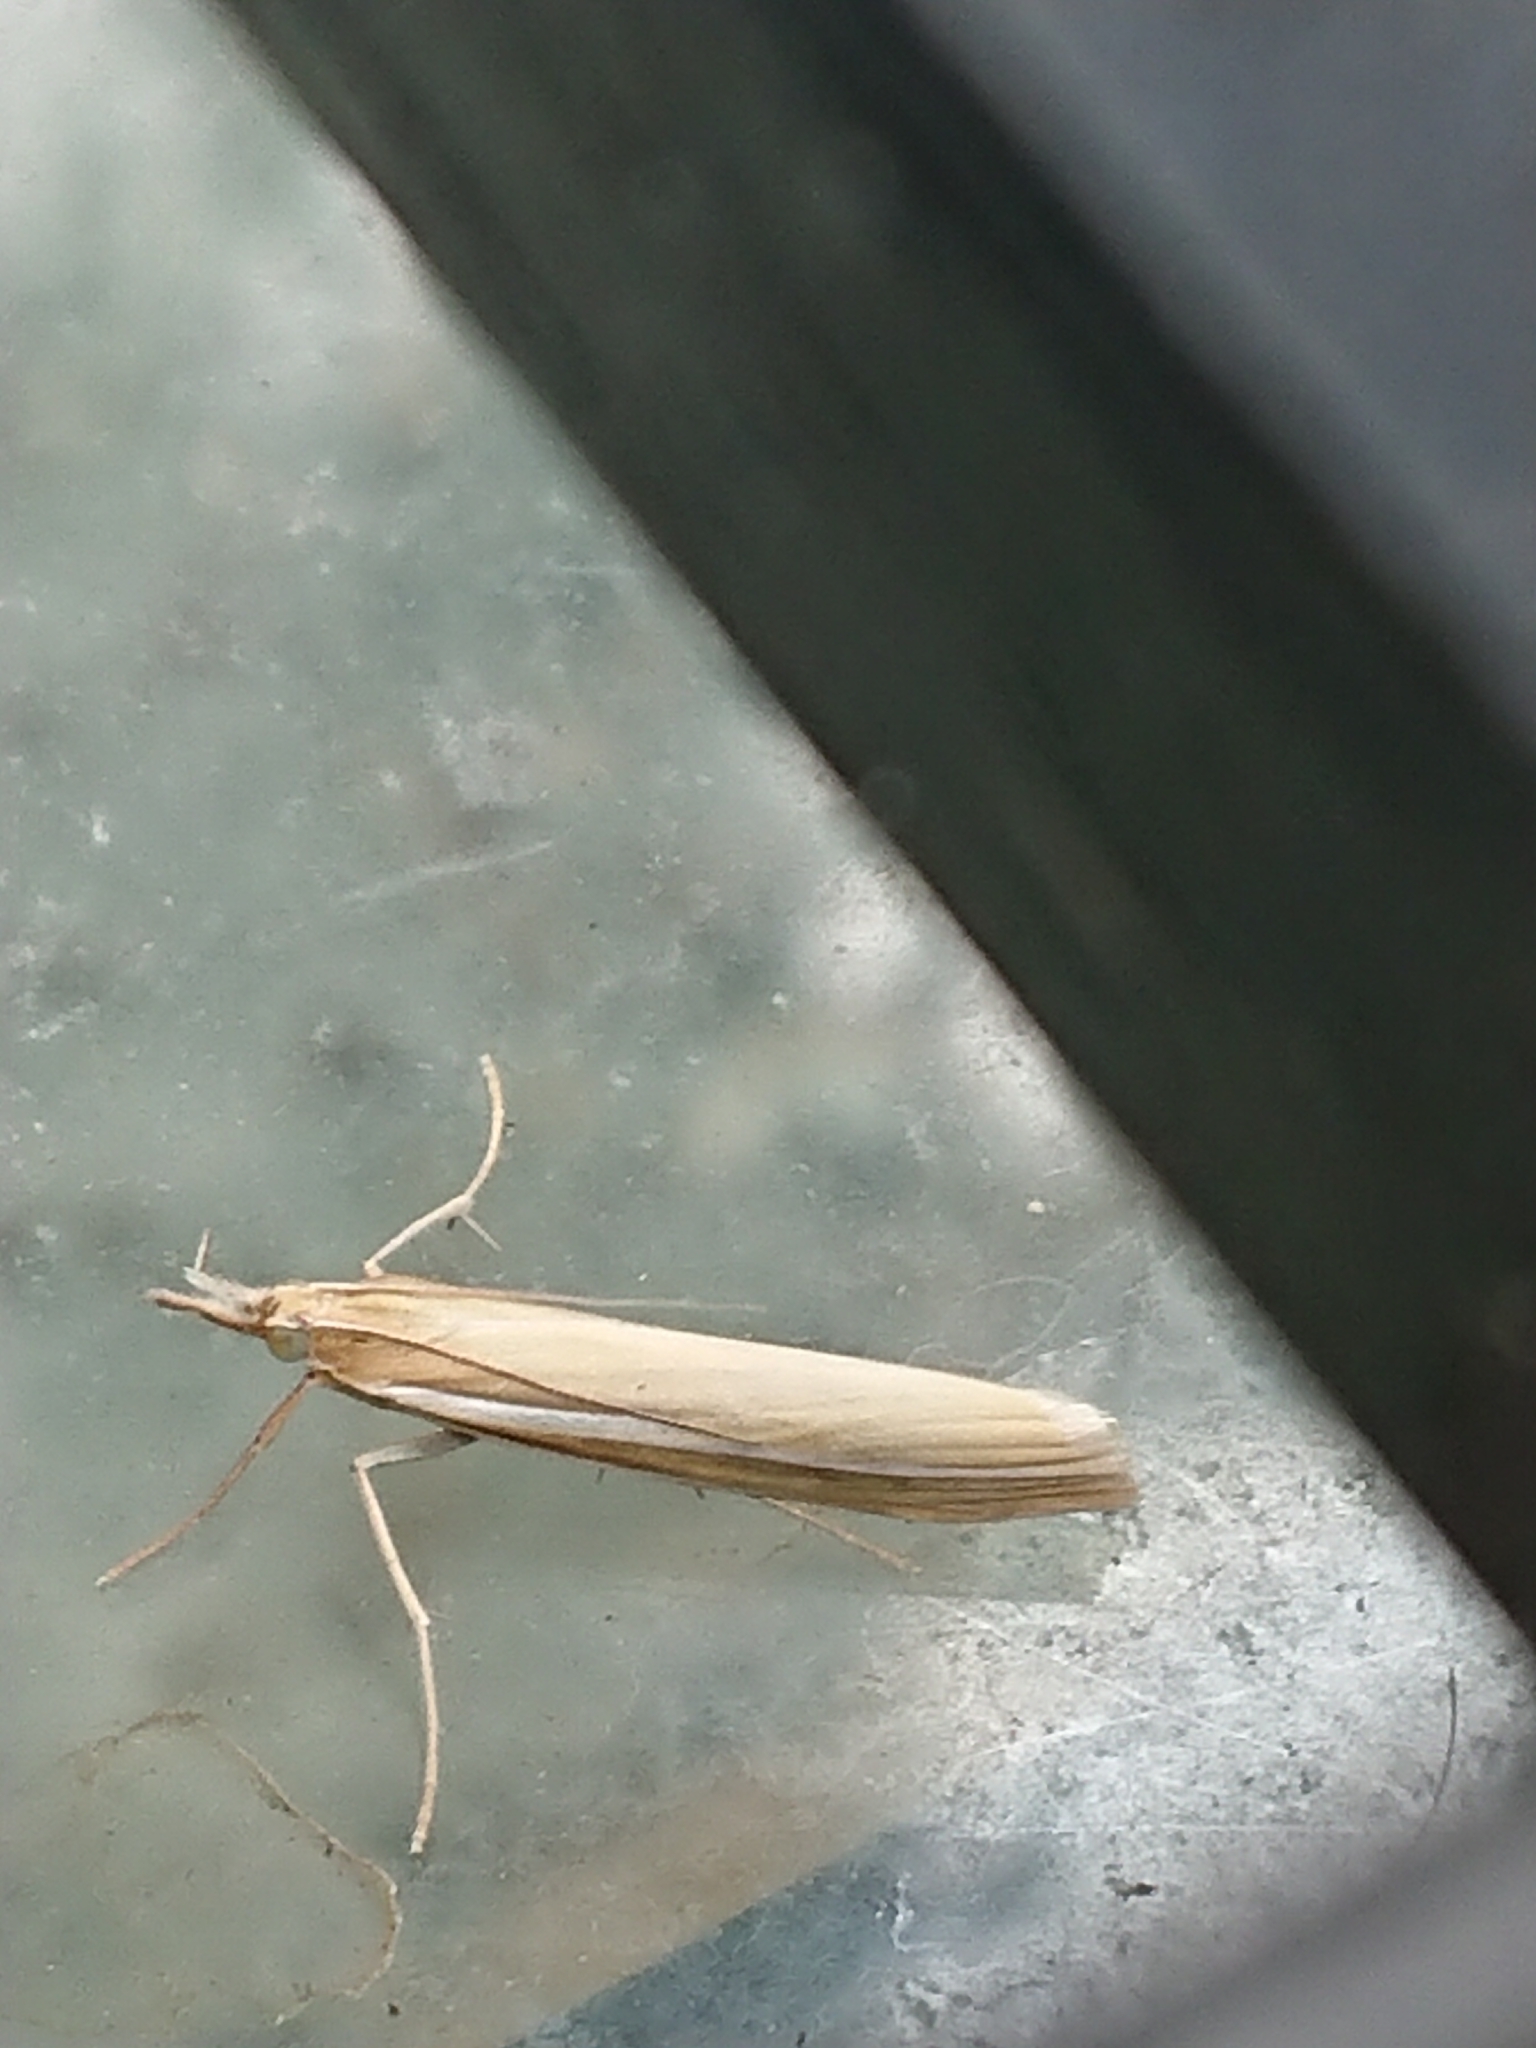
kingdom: Animalia
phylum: Arthropoda
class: Insecta
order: Lepidoptera
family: Crambidae
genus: Orocrambus
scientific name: Orocrambus lewisi
